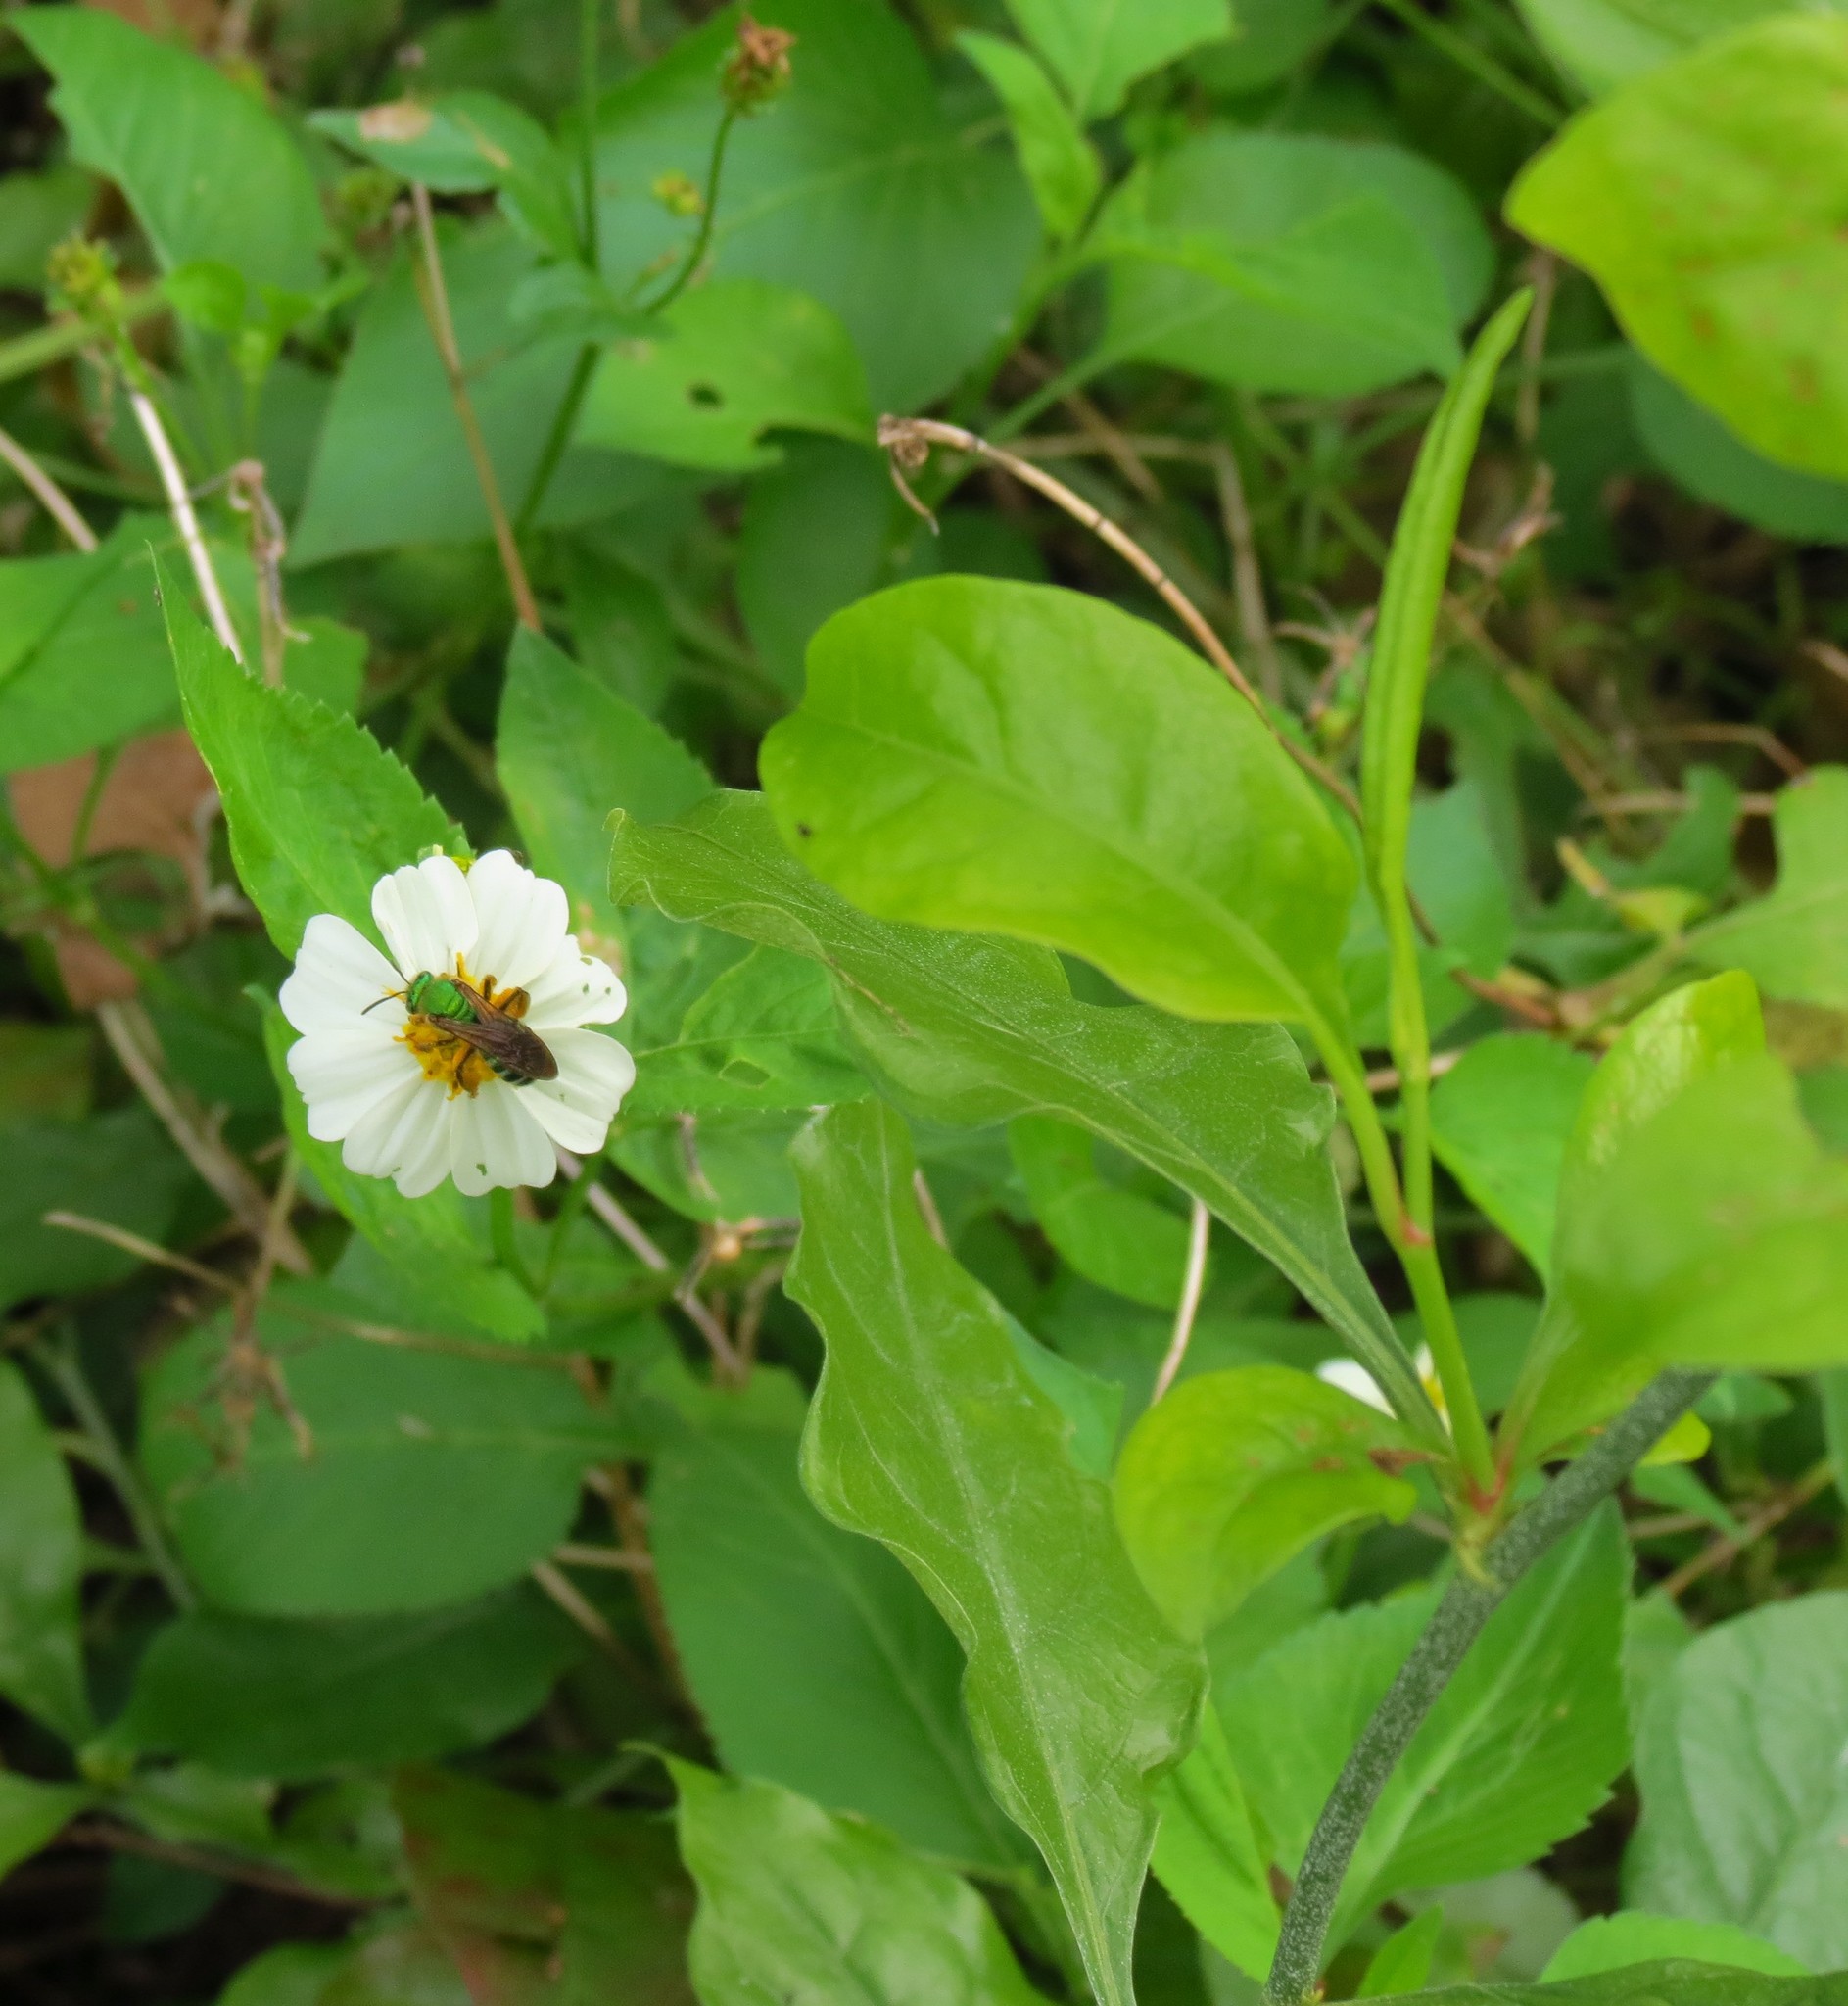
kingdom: Plantae
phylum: Tracheophyta
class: Magnoliopsida
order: Asterales
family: Asteraceae
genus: Bidens
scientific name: Bidens alba
